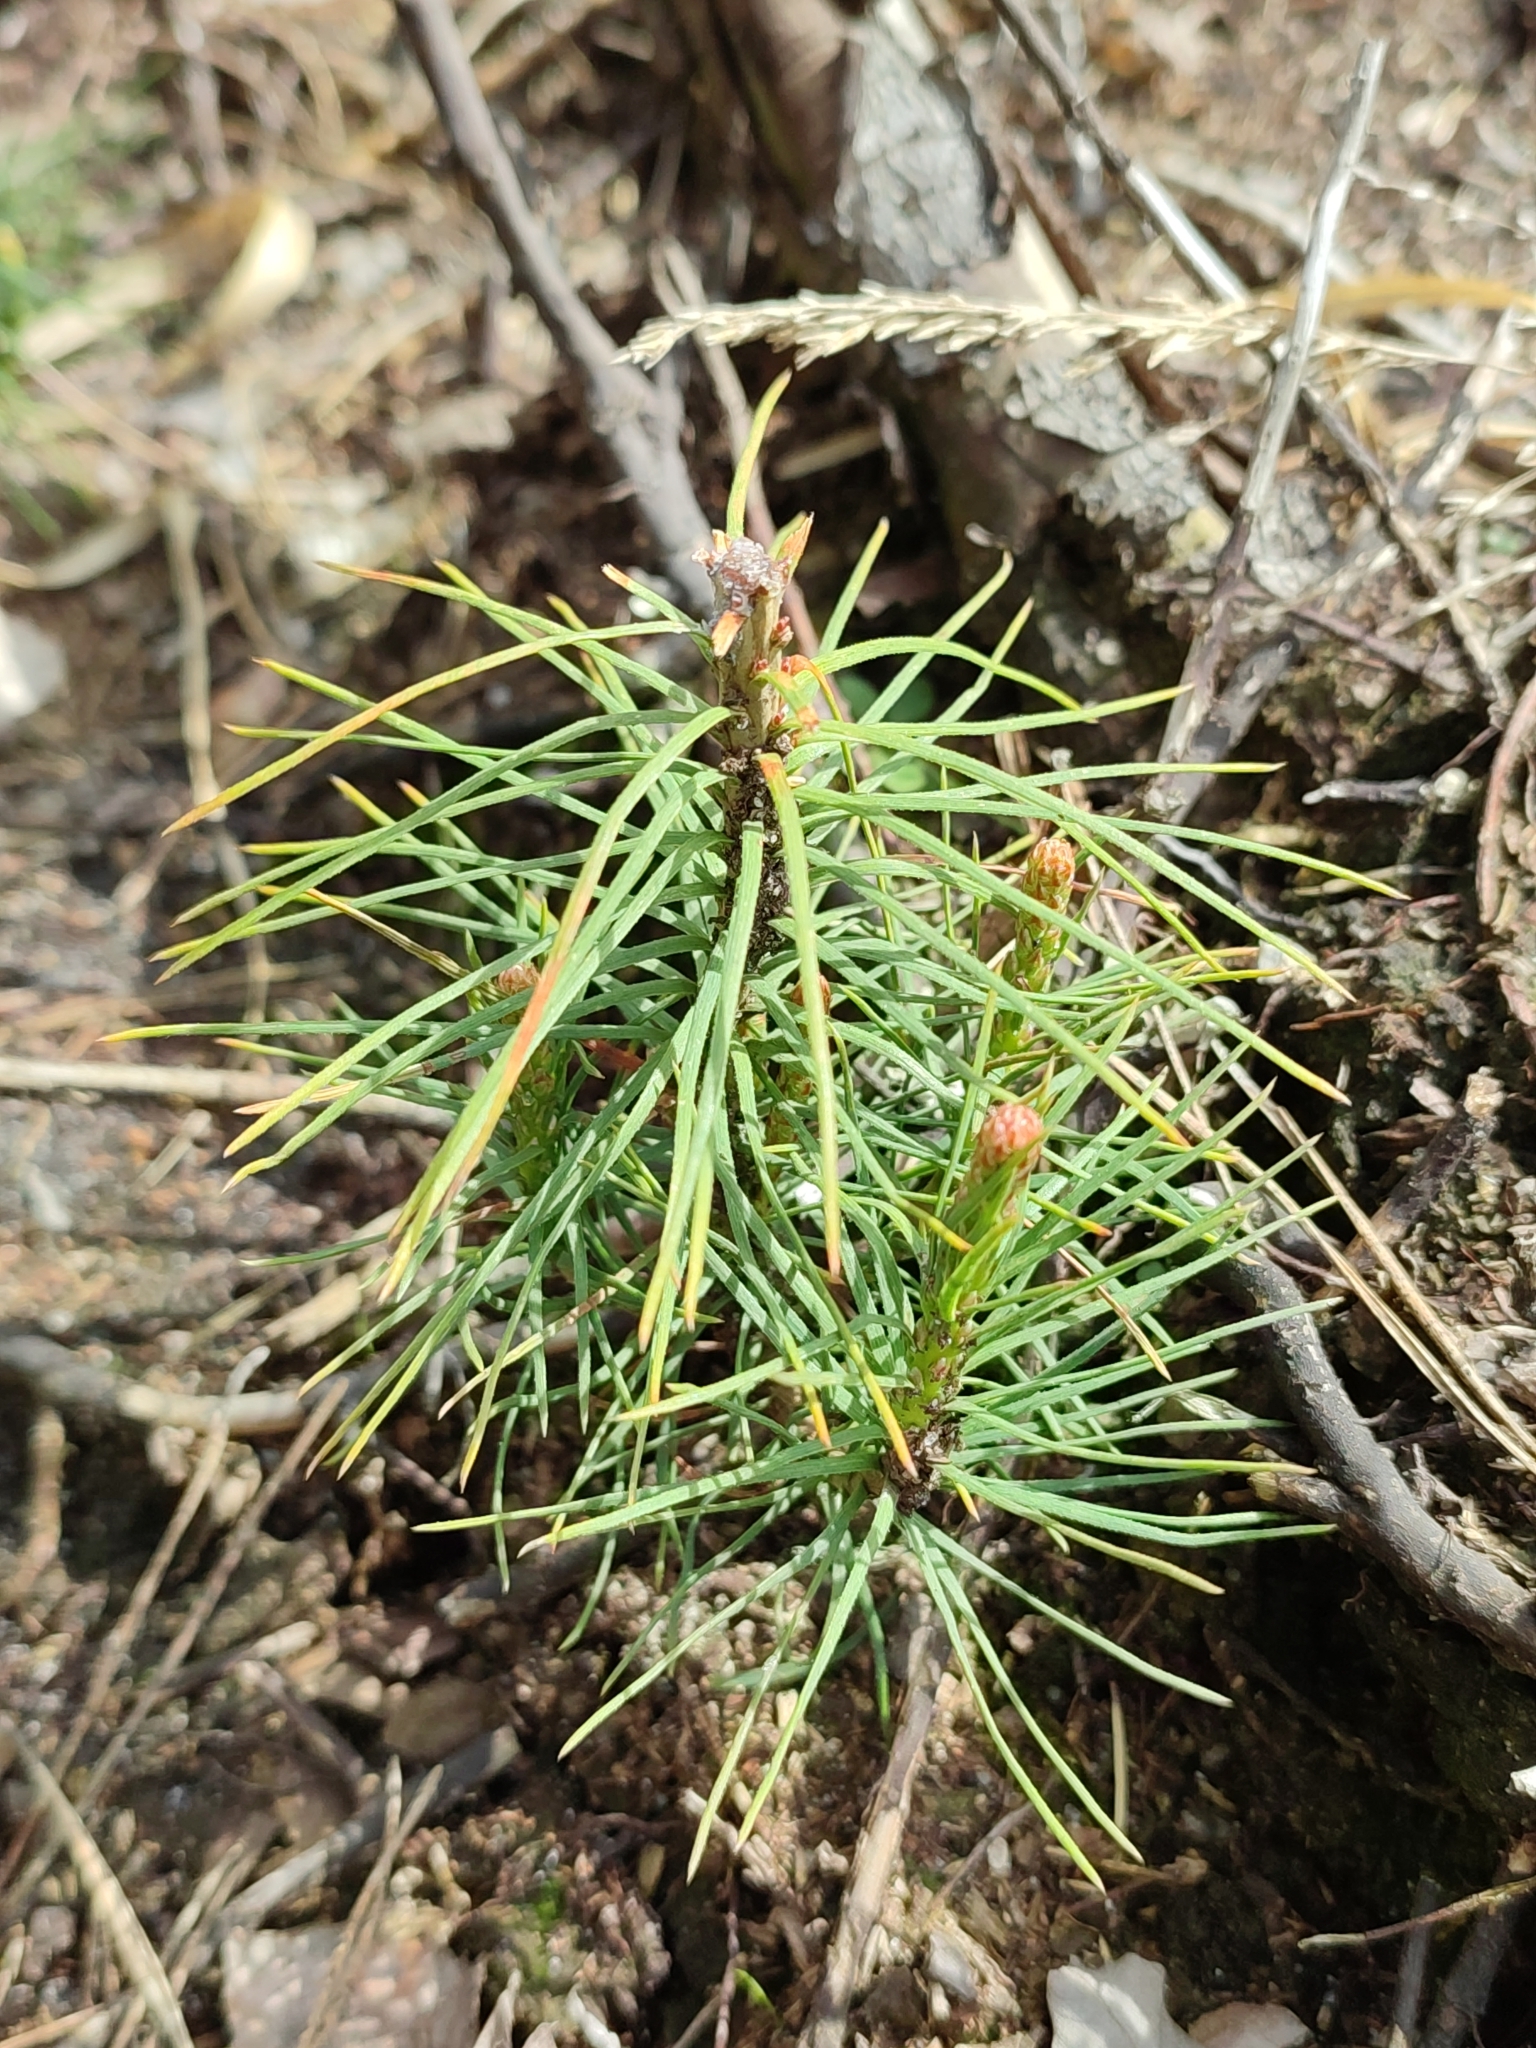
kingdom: Plantae
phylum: Tracheophyta
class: Pinopsida
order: Pinales
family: Pinaceae
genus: Pinus
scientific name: Pinus sylvestris
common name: Scots pine
